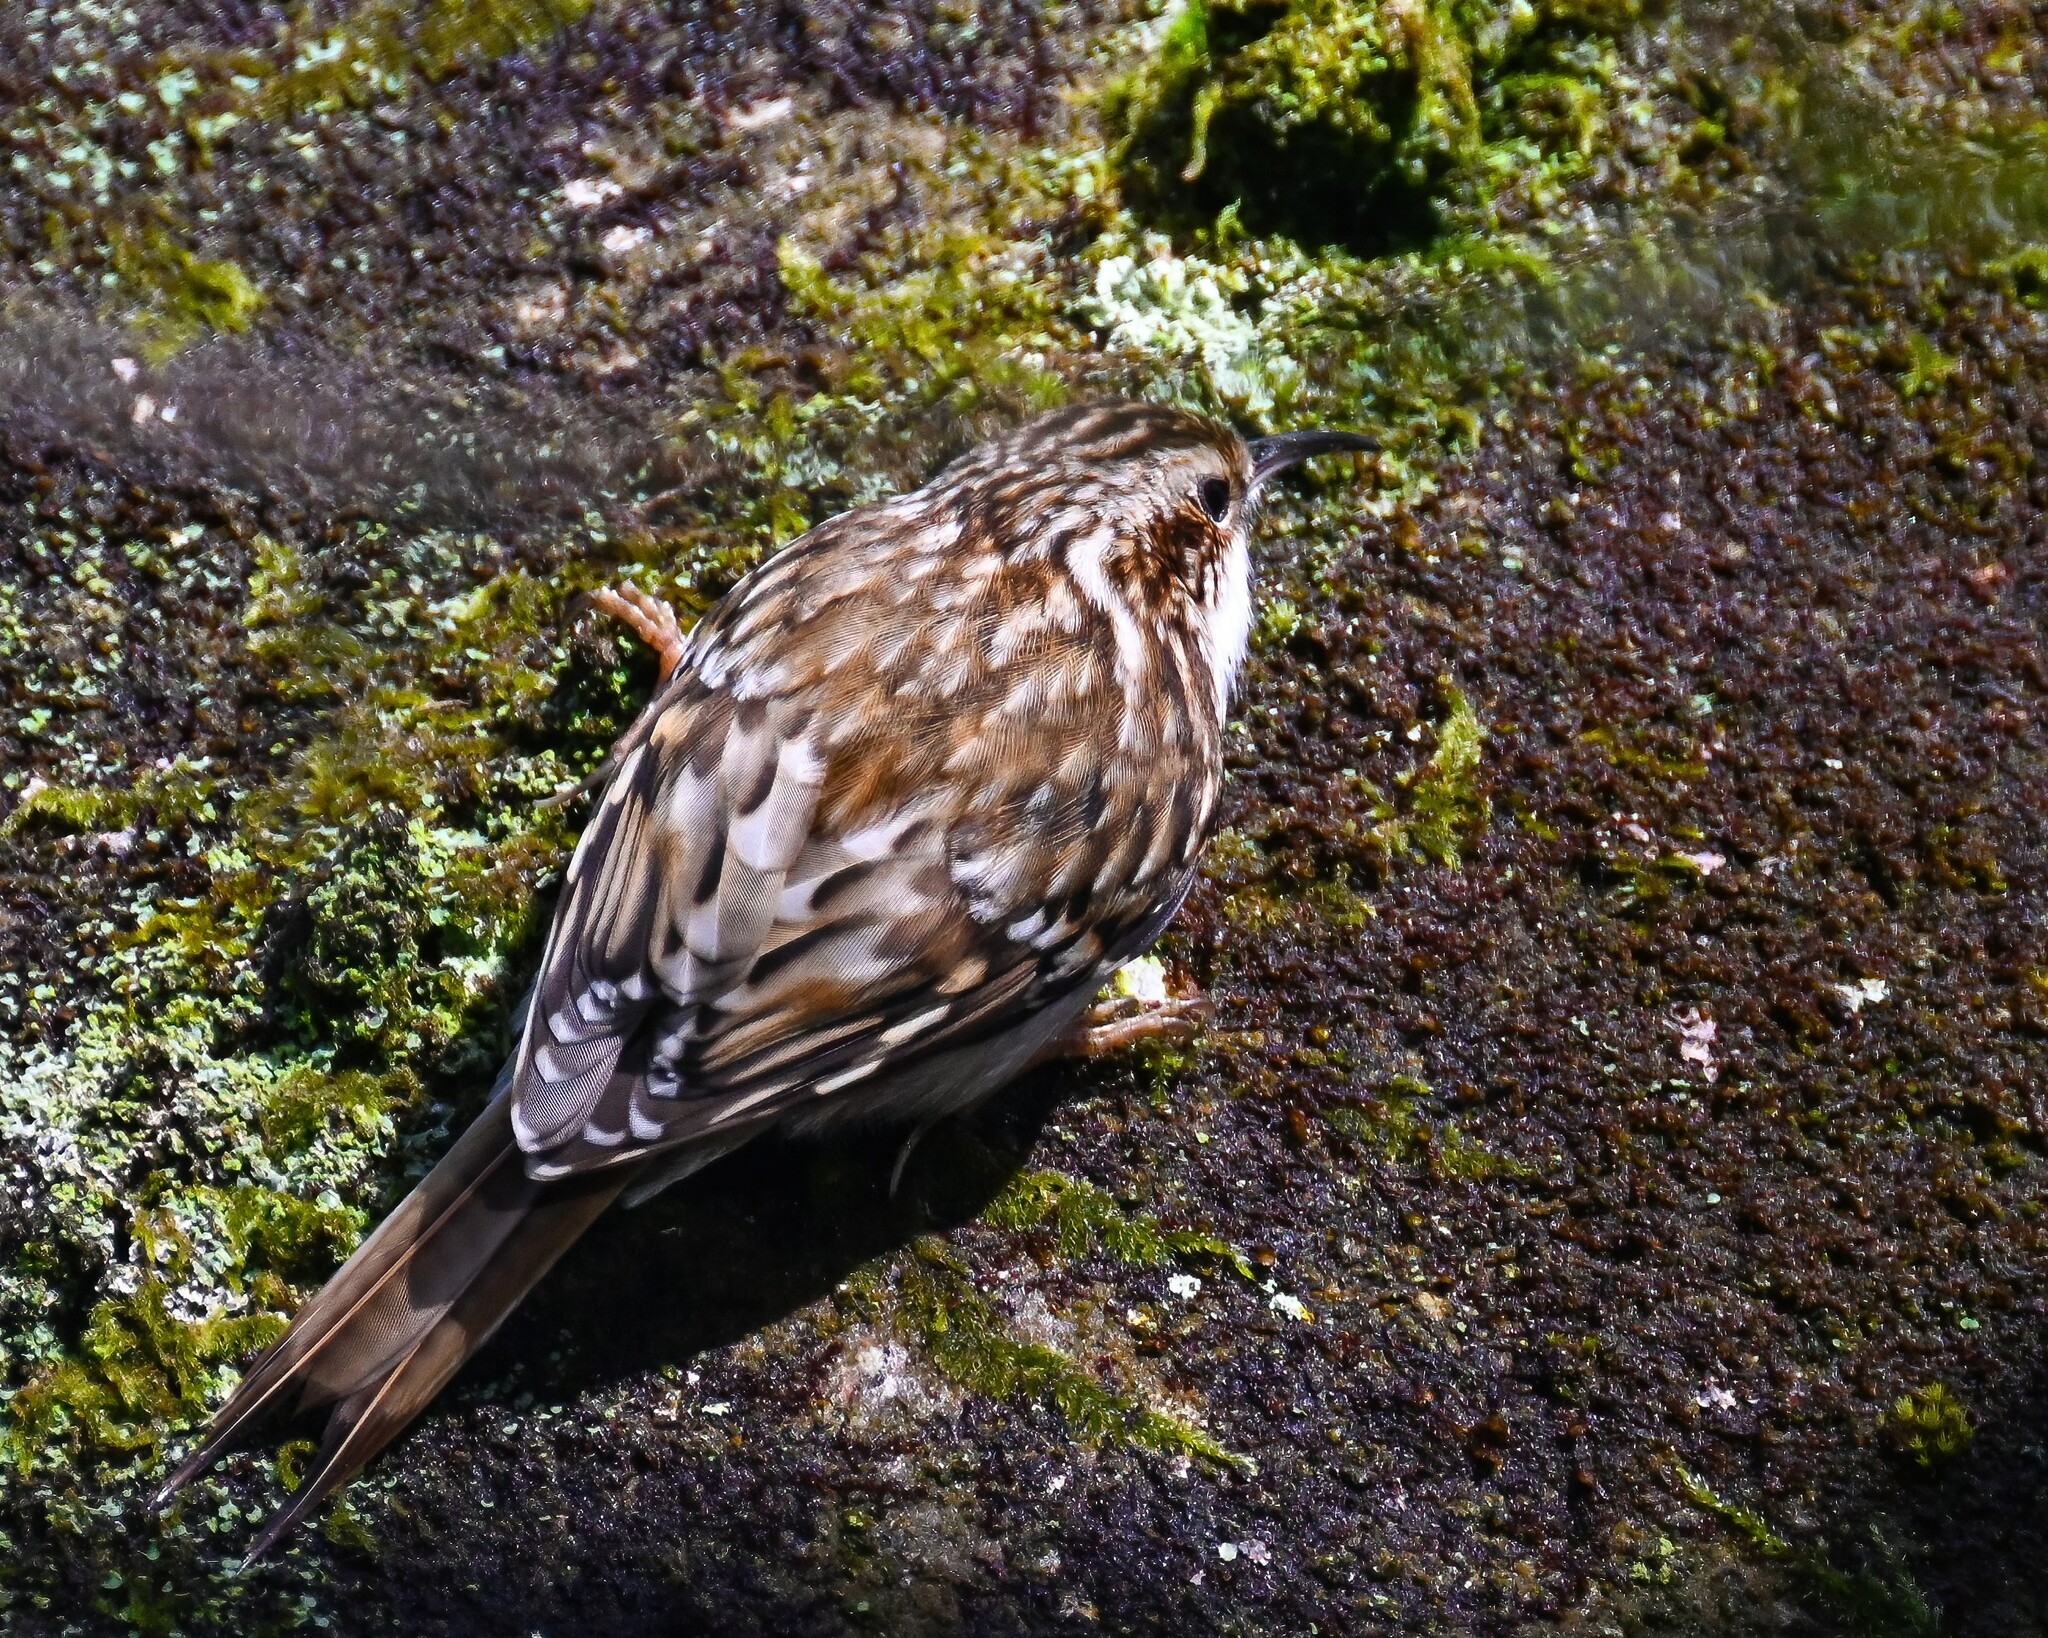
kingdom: Animalia
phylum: Chordata
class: Aves
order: Passeriformes
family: Certhiidae
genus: Certhia
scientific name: Certhia familiaris
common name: Eurasian treecreeper
